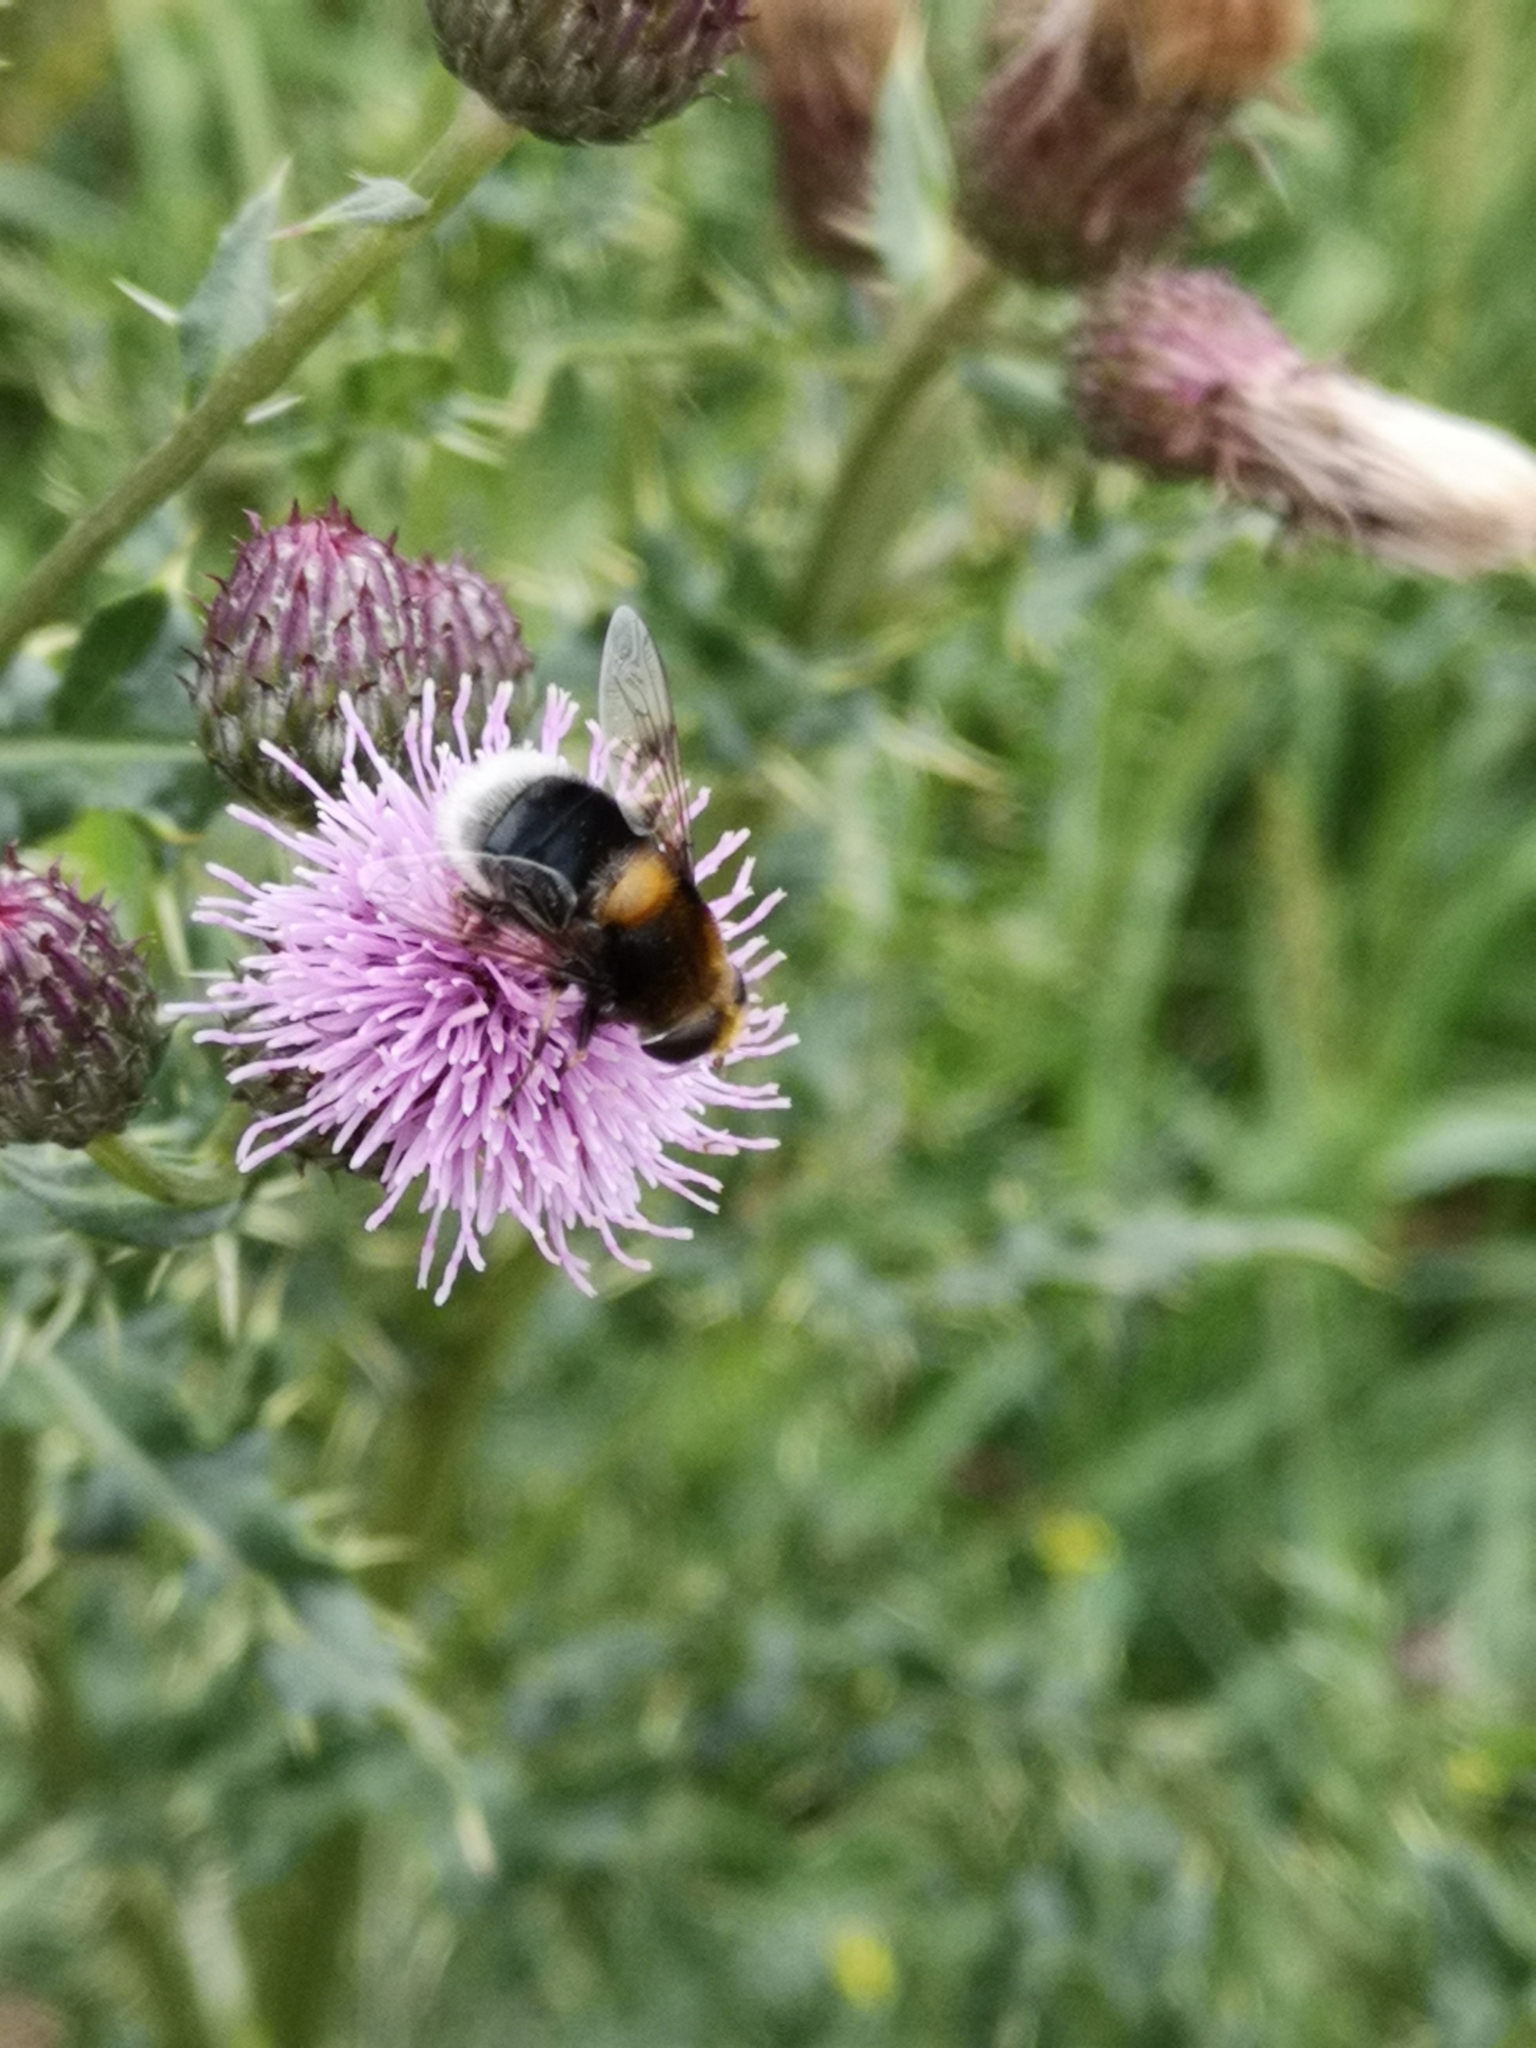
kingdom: Animalia
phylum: Arthropoda
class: Insecta
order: Diptera
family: Syrphidae
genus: Eristalis
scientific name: Eristalis intricaria
